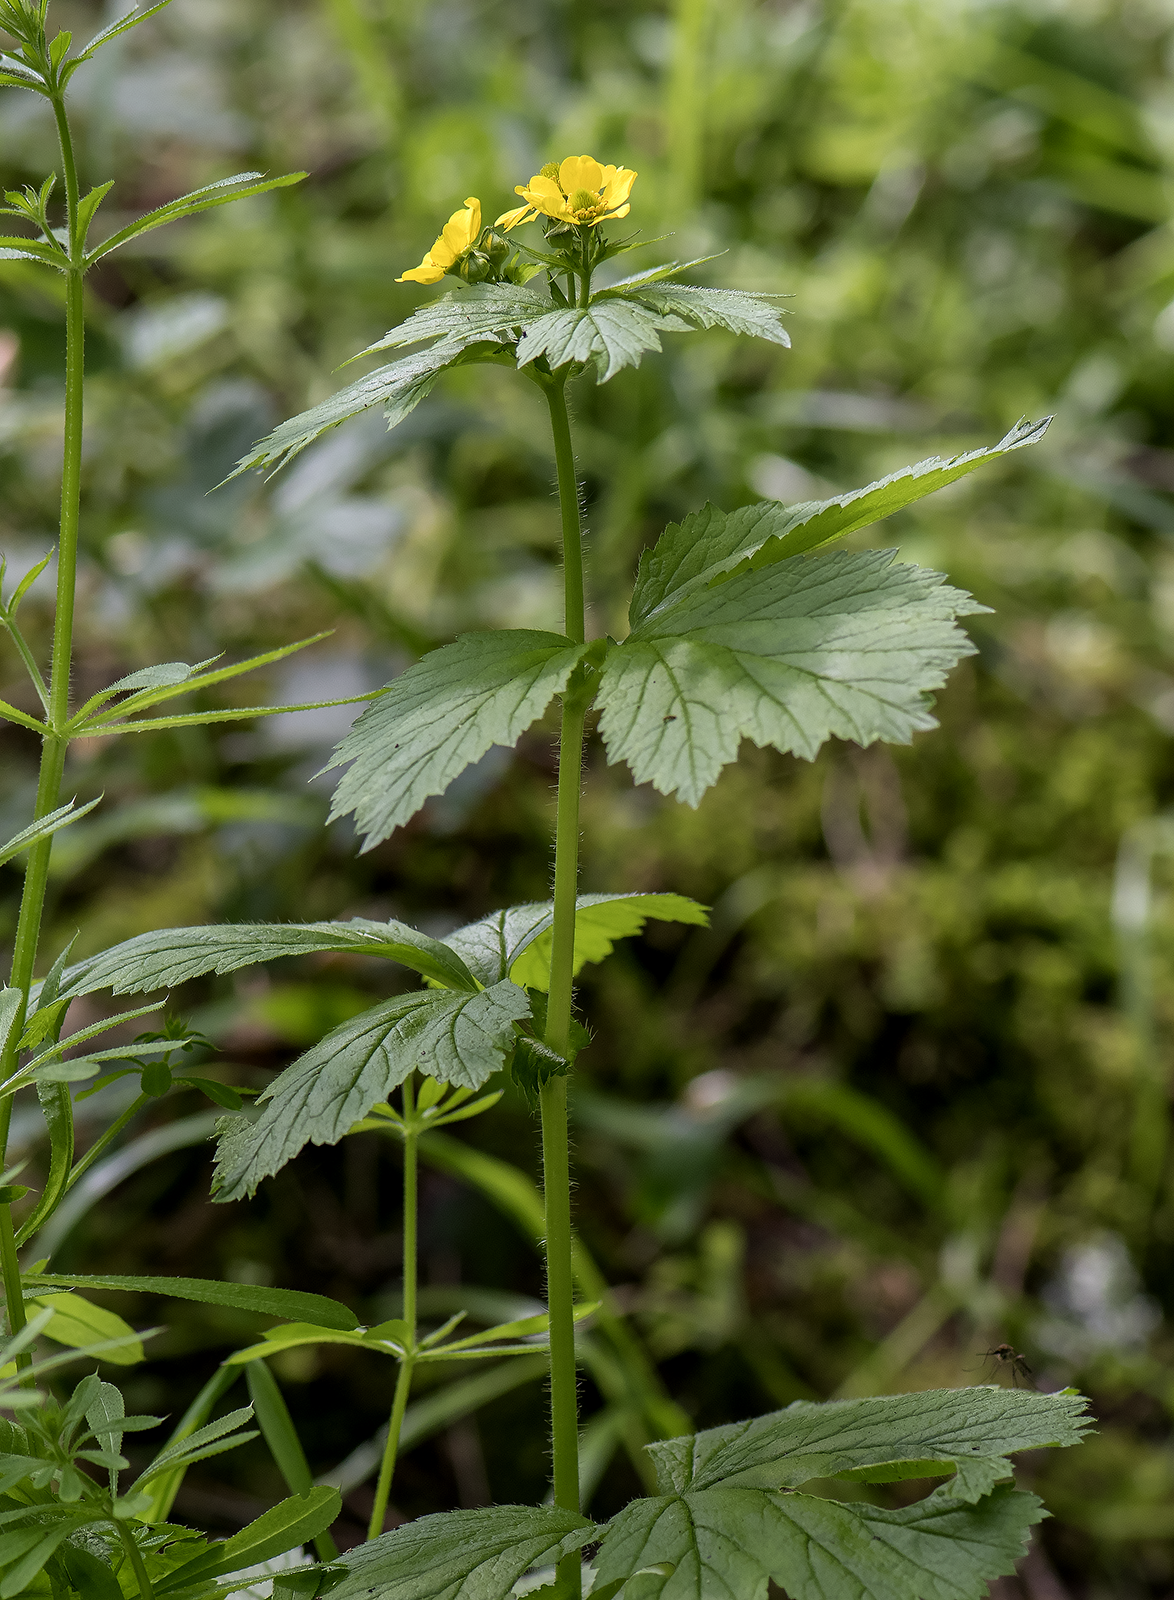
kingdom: Plantae
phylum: Tracheophyta
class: Magnoliopsida
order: Rosales
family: Rosaceae
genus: Geum
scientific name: Geum macrophyllum
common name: Large-leaved avens
